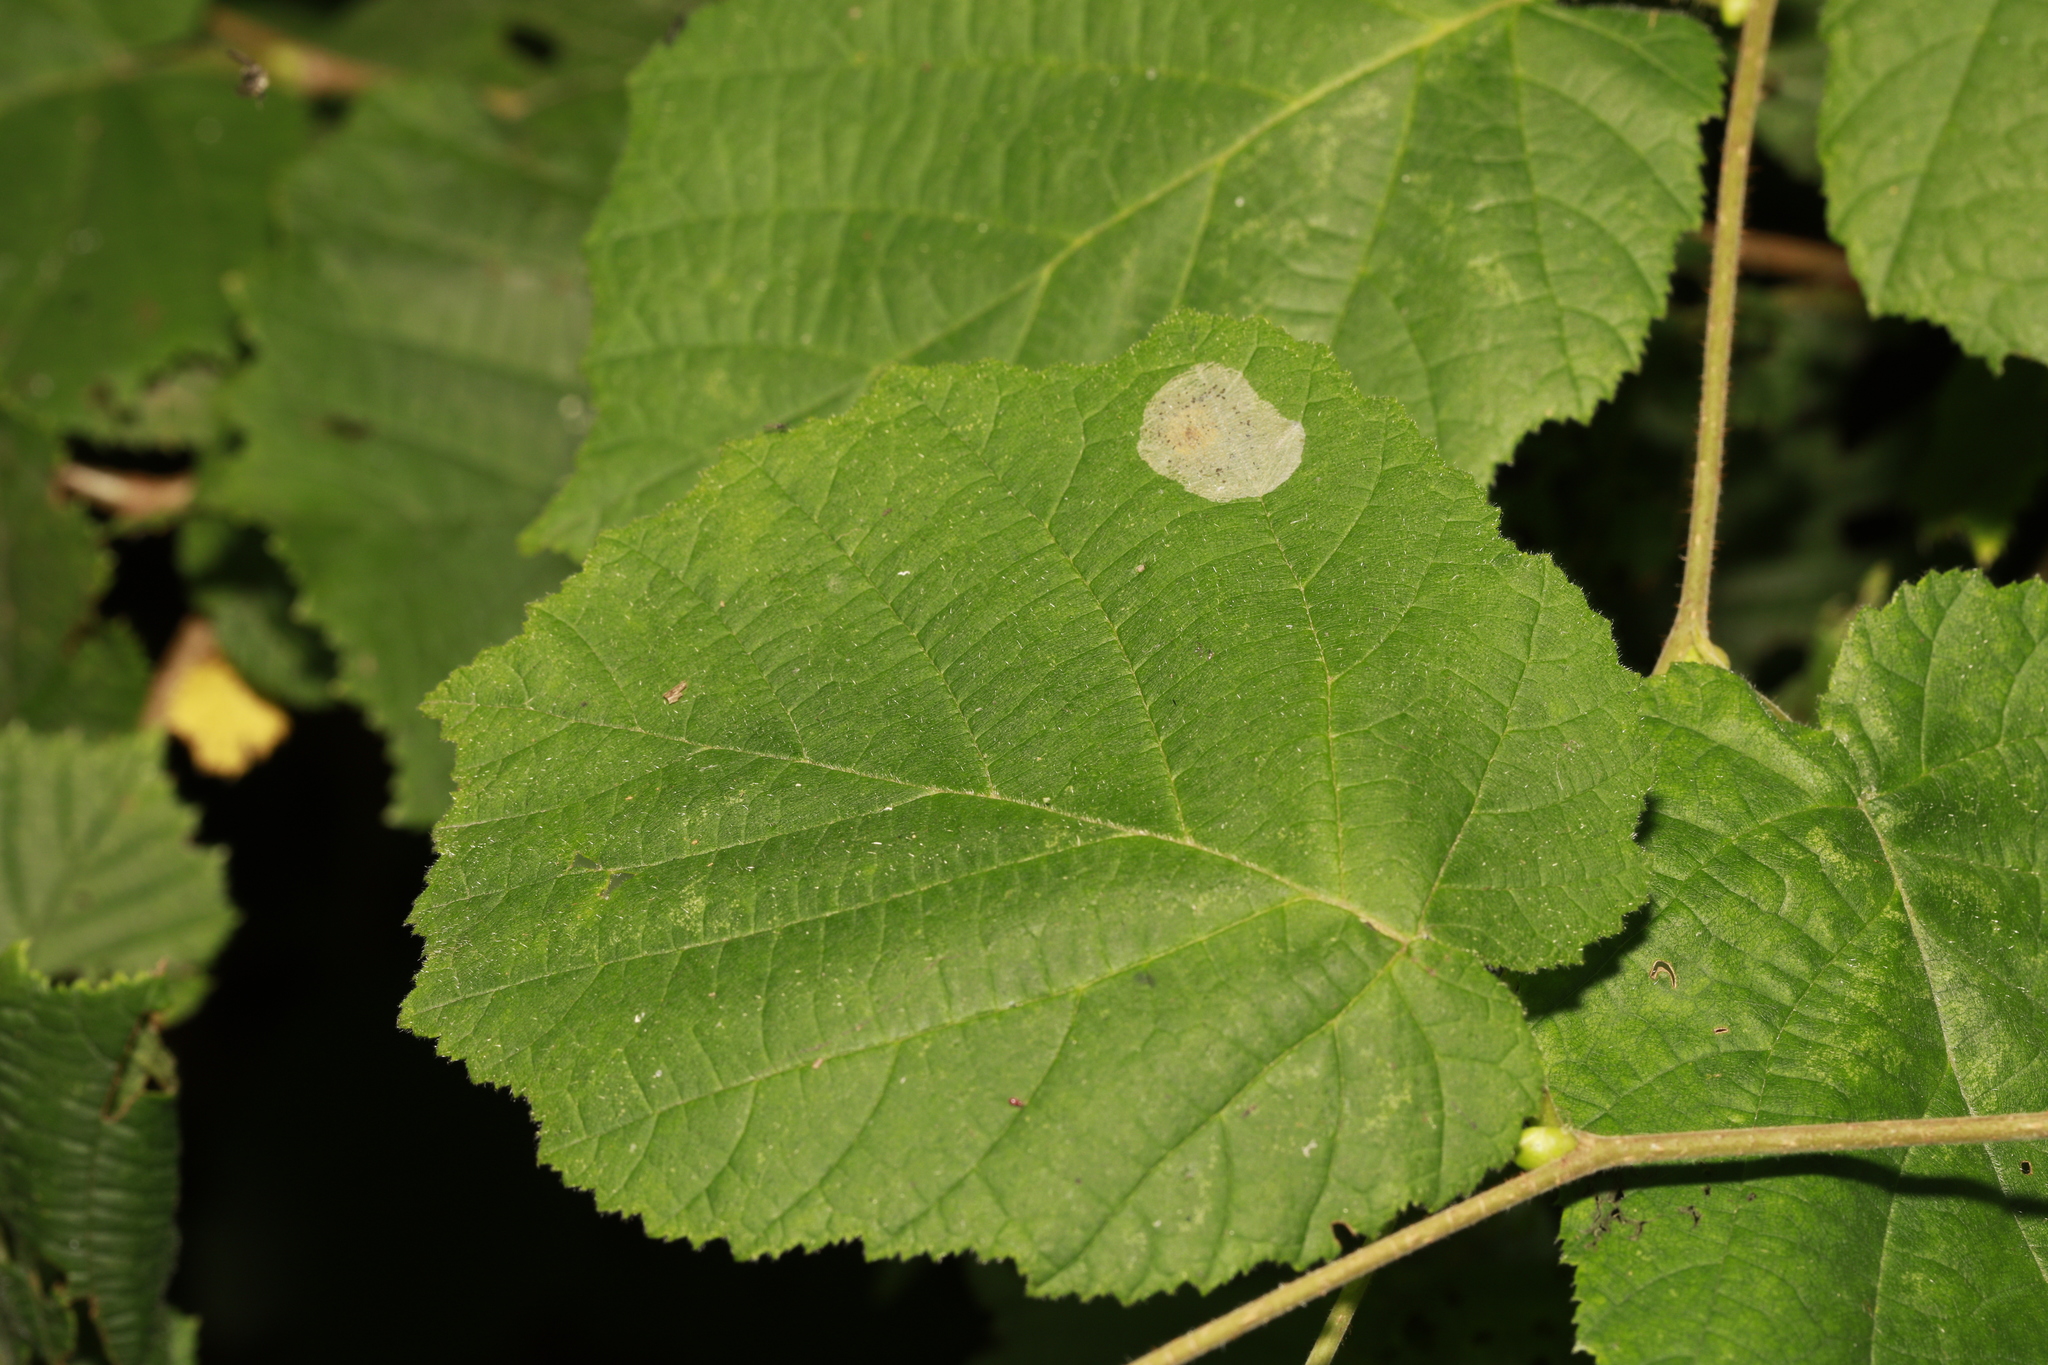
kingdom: Animalia
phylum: Arthropoda
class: Insecta
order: Lepidoptera
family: Gracillariidae
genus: Phyllonorycter
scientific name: Phyllonorycter coryli
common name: Nut-leaf blister moth
